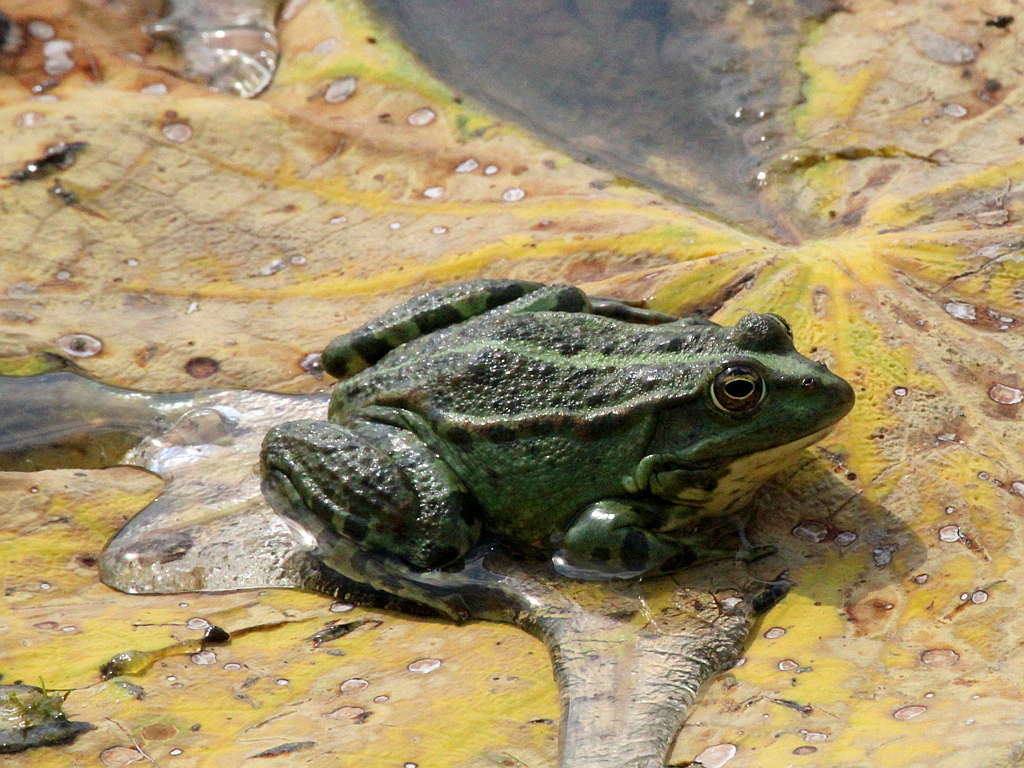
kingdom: Animalia
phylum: Chordata
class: Amphibia
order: Anura
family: Ranidae
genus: Pelophylax
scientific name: Pelophylax ridibundus
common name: Marsh frog
